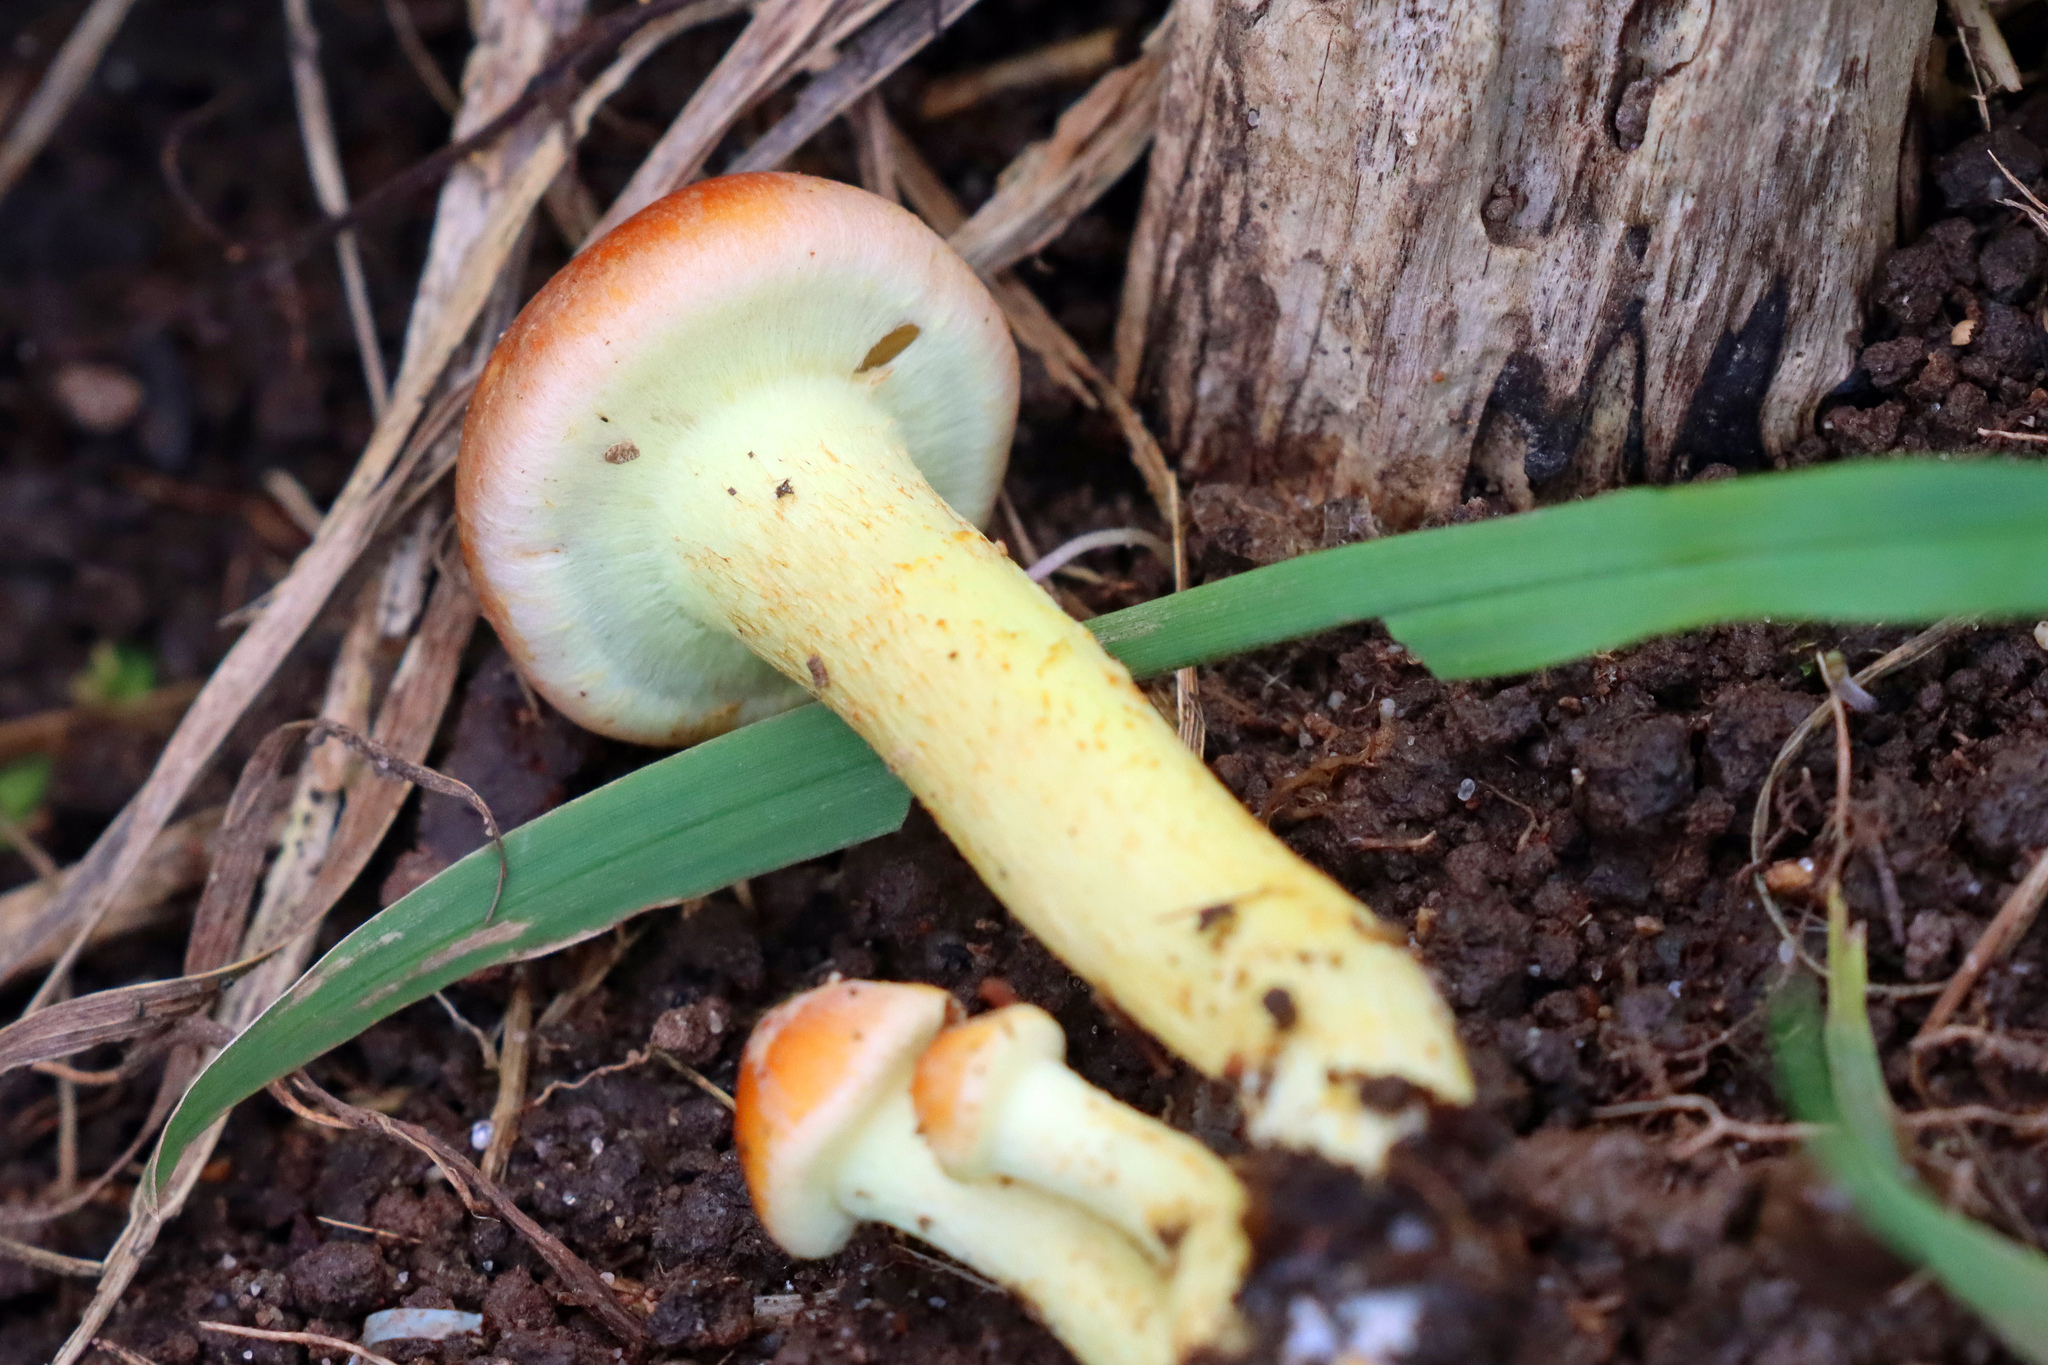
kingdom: Fungi
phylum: Basidiomycota
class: Agaricomycetes
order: Agaricales
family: Strophariaceae
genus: Hypholoma
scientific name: Hypholoma lateritium
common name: Brick caps
